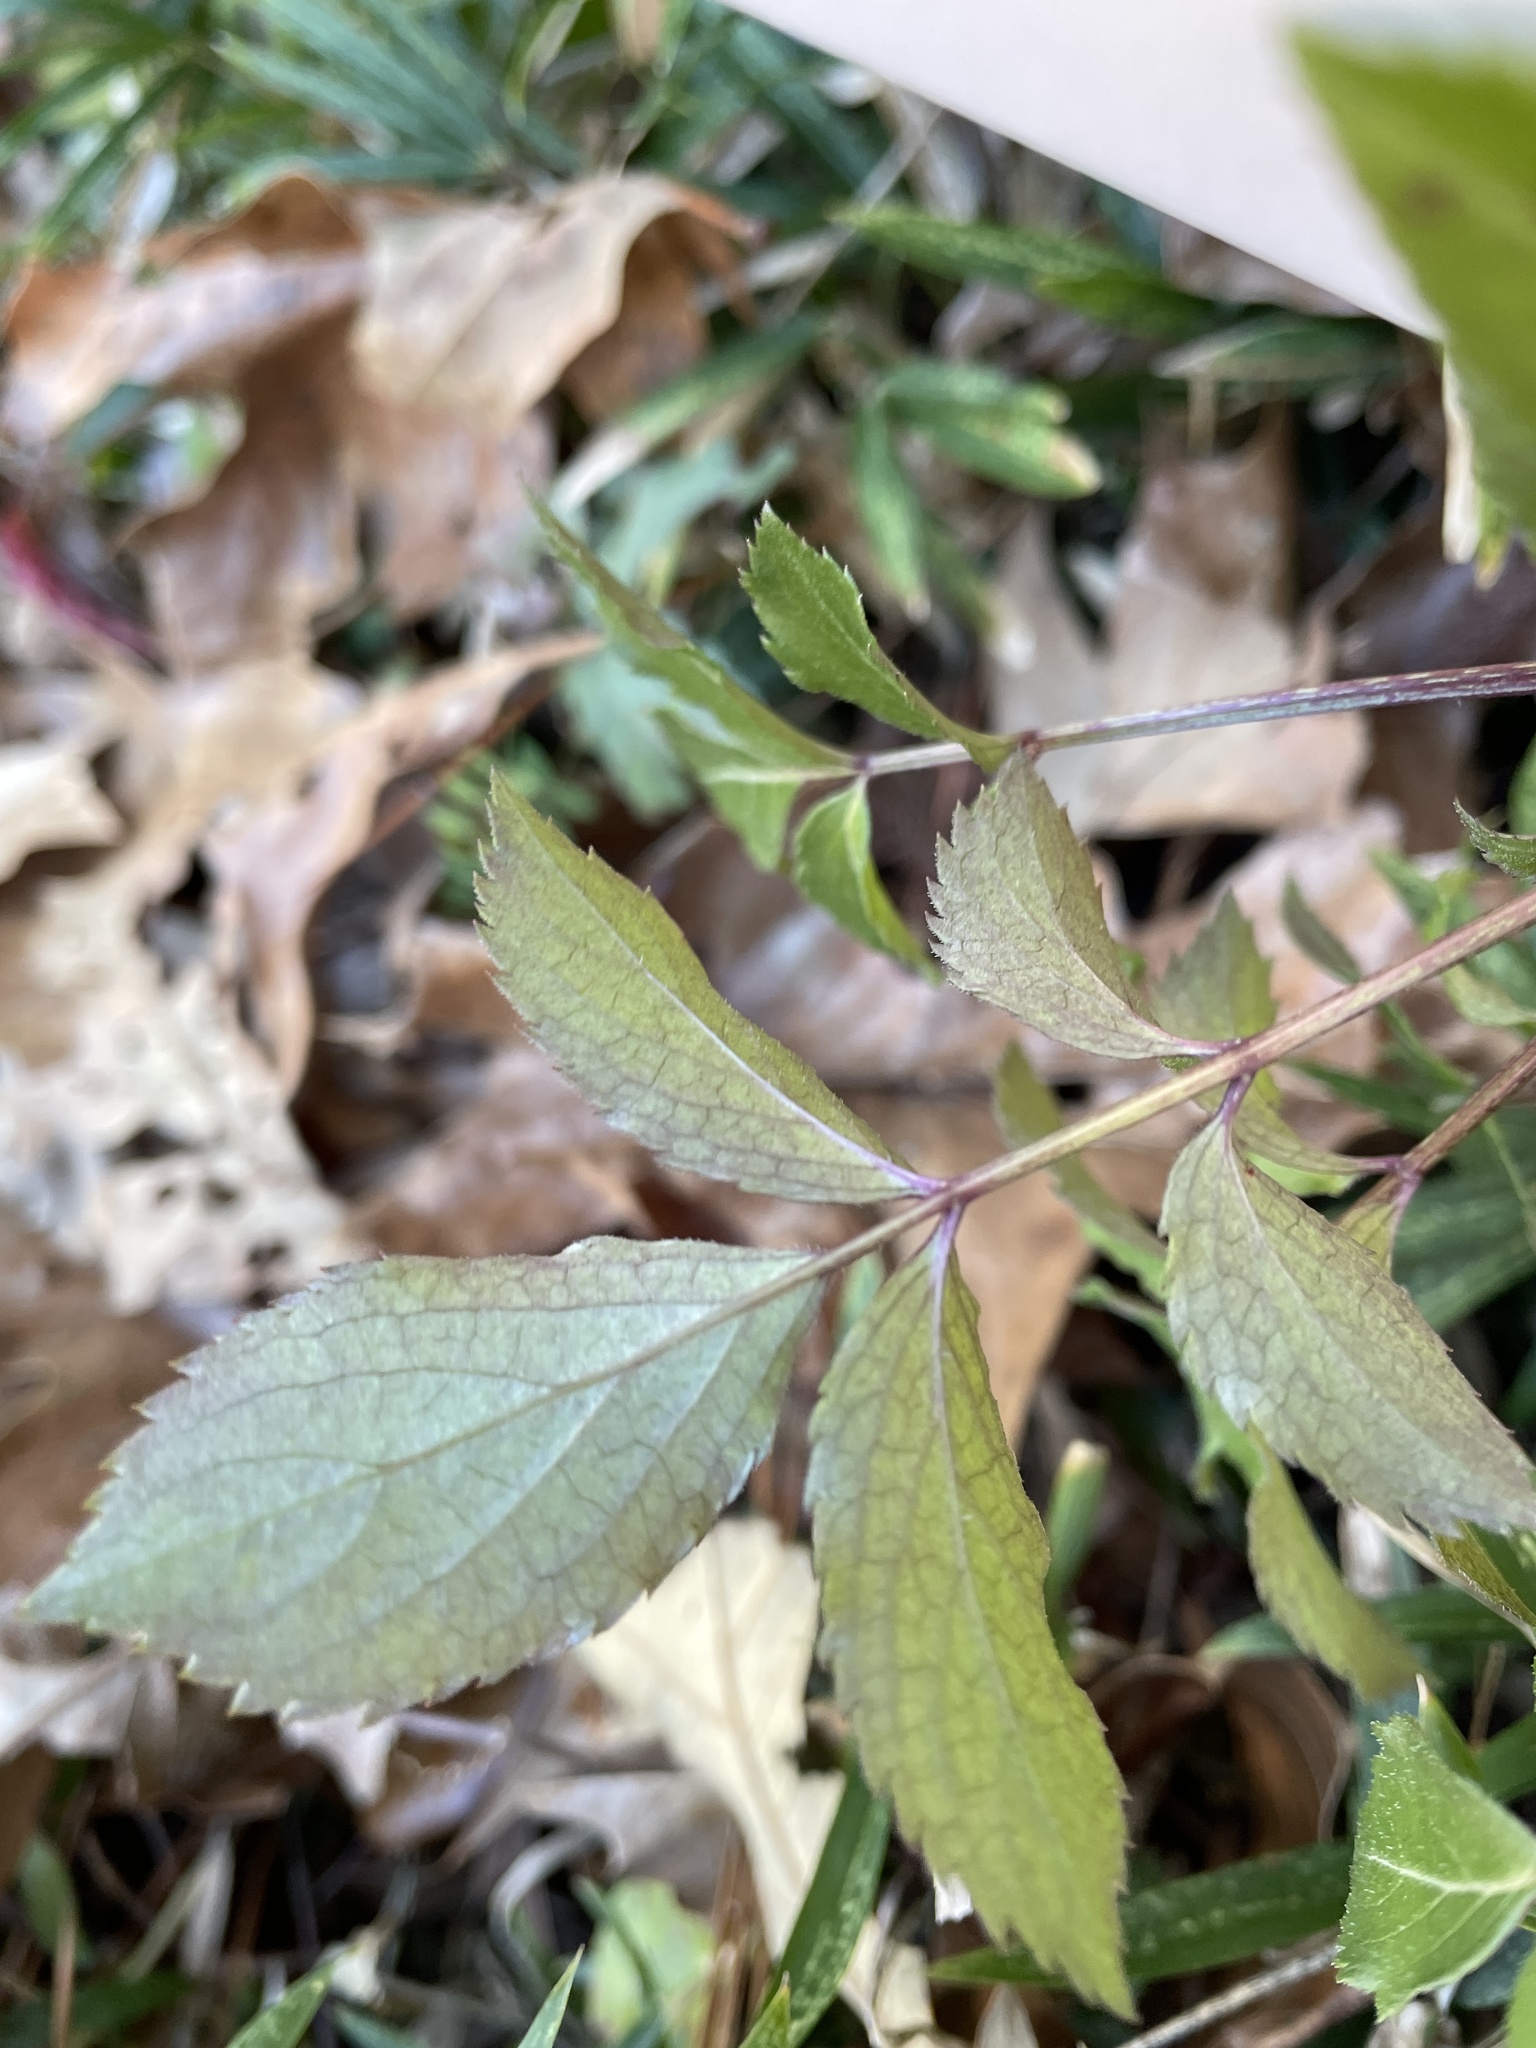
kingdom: Plantae
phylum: Tracheophyta
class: Magnoliopsida
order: Dipsacales
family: Viburnaceae
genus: Sambucus
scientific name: Sambucus canadensis
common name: American elder
